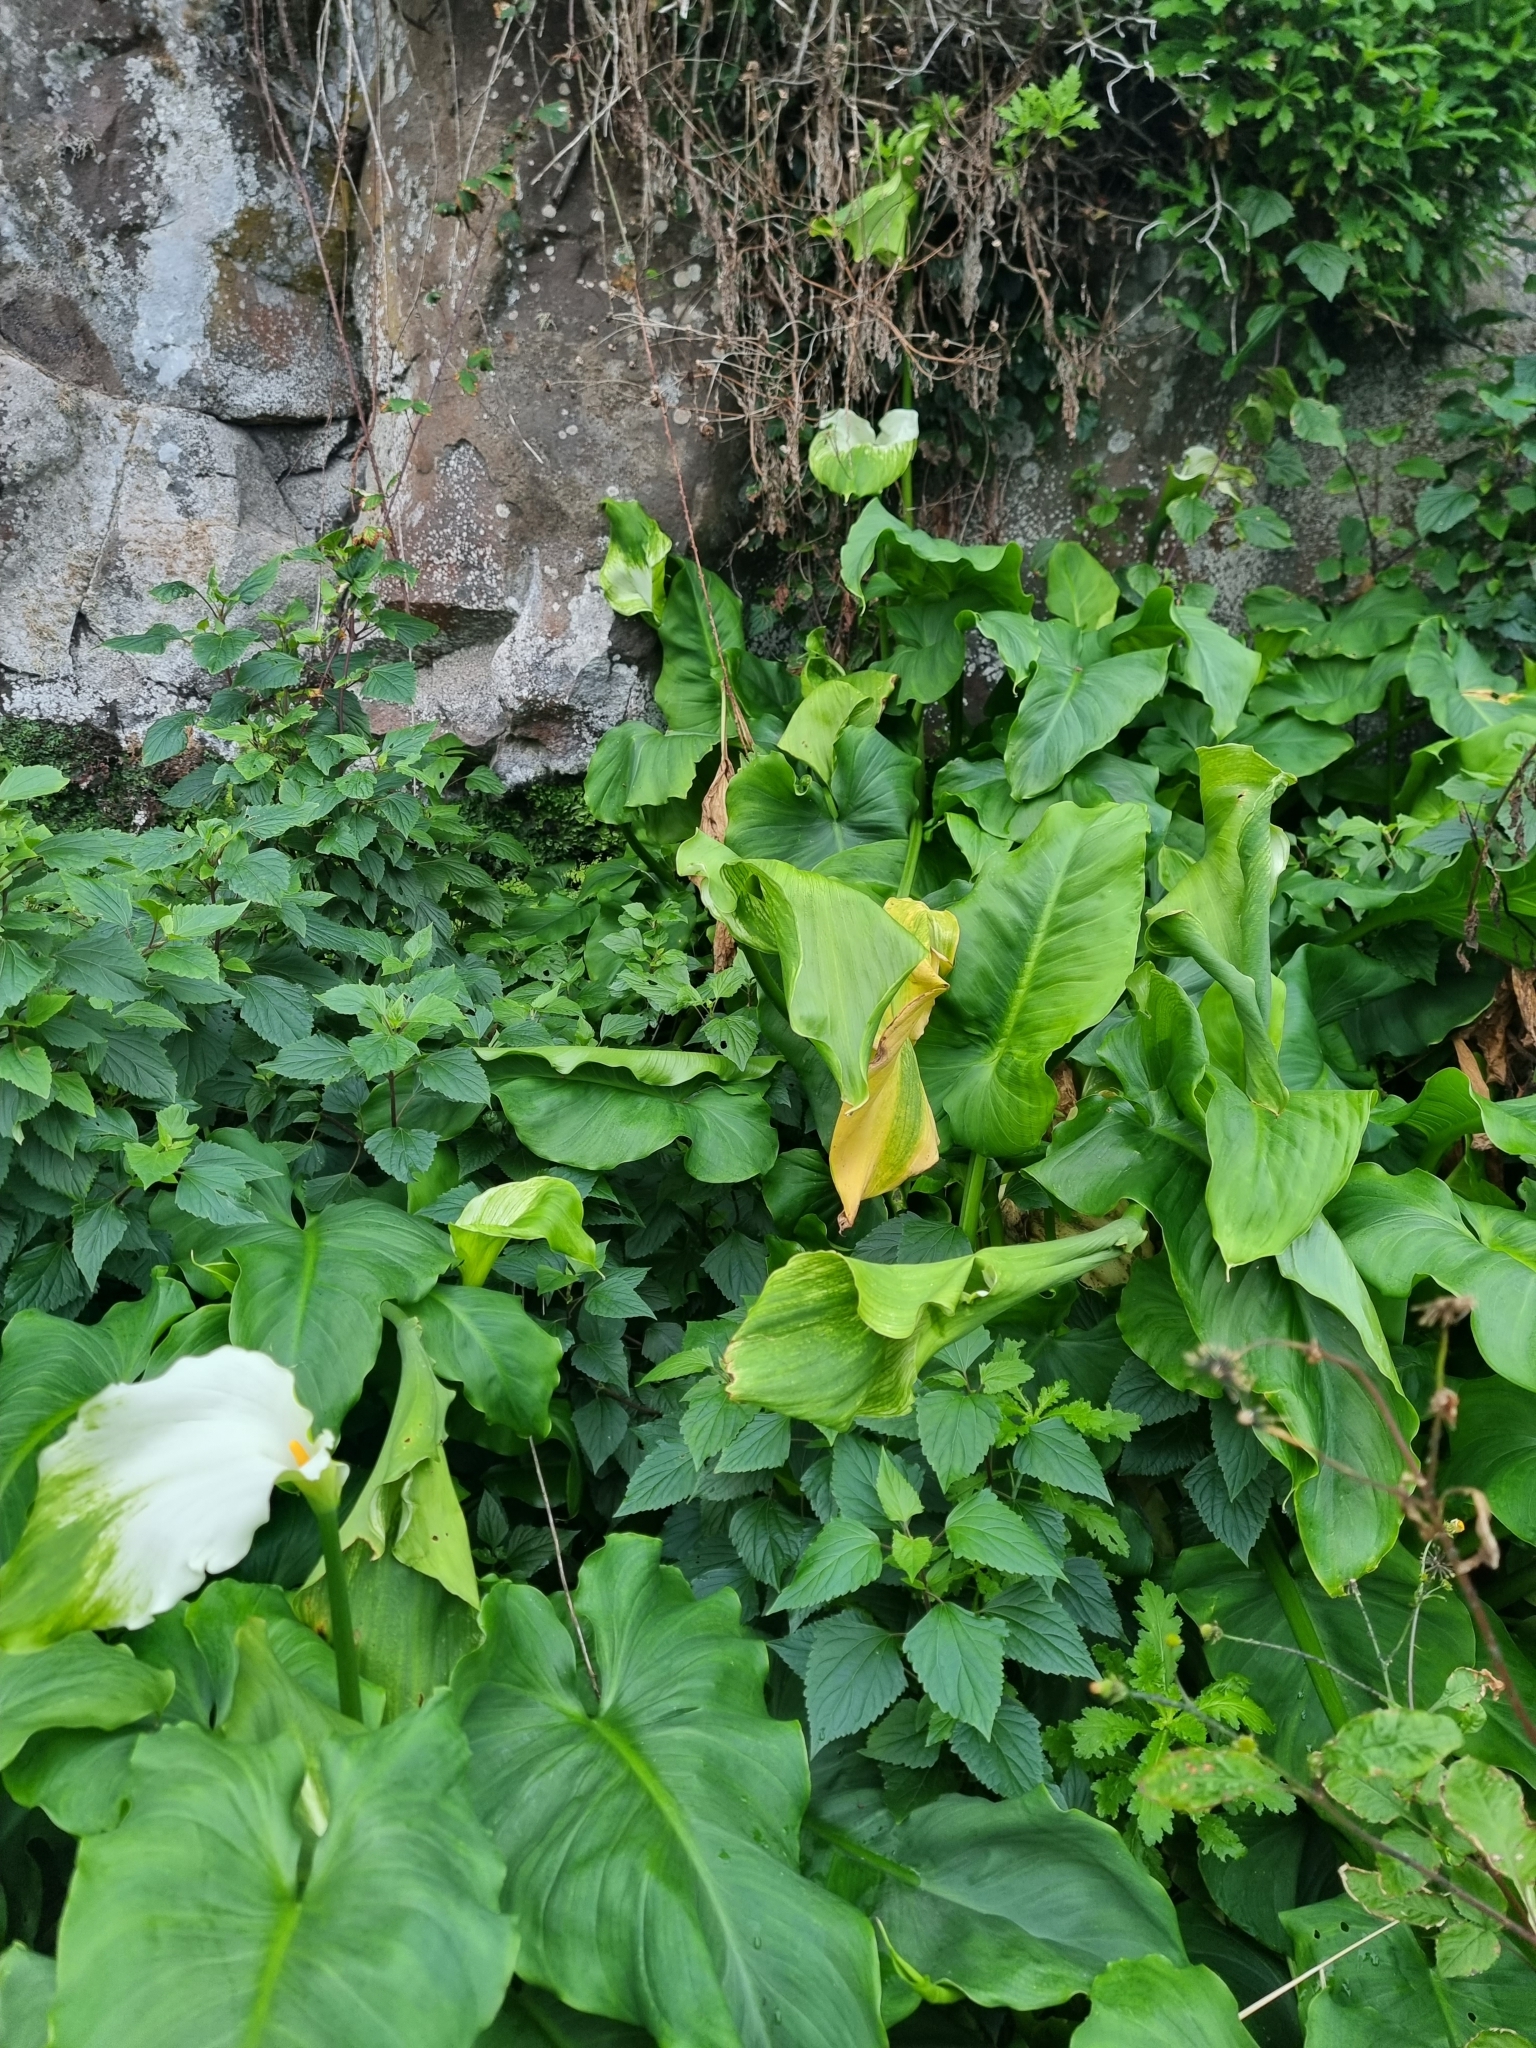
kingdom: Plantae
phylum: Tracheophyta
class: Liliopsida
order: Alismatales
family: Araceae
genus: Zantedeschia
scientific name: Zantedeschia aethiopica
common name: Altar-lily
